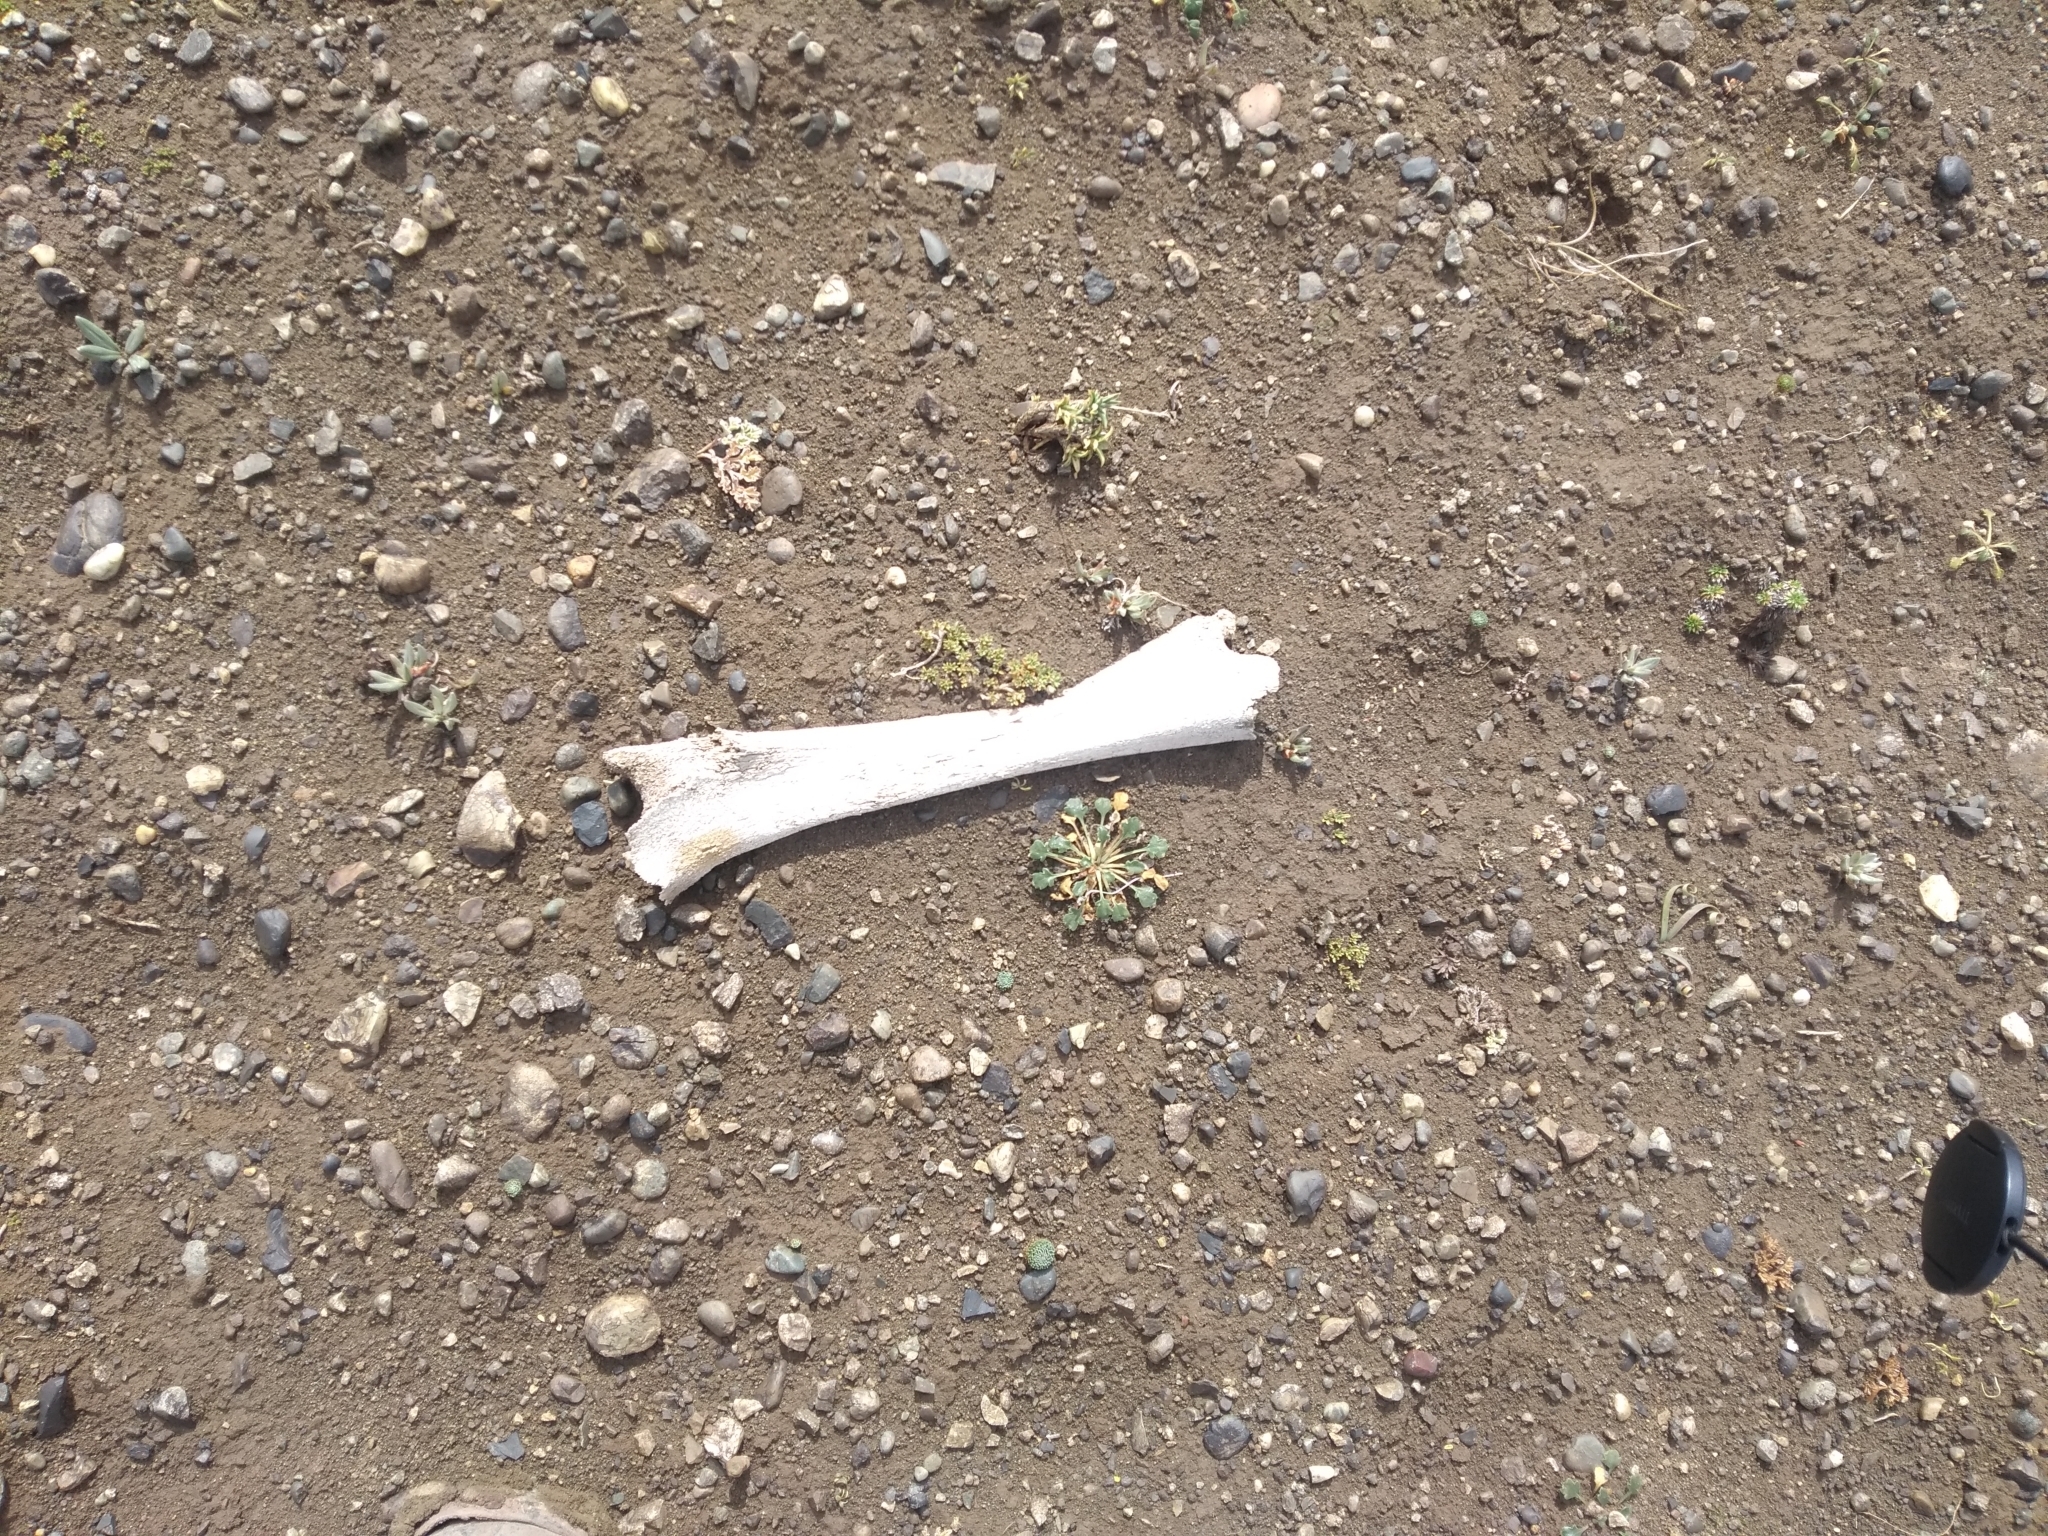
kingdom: Animalia
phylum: Chordata
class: Mammalia
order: Artiodactyla
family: Camelidae
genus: Lama
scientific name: Lama glama
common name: Llama
